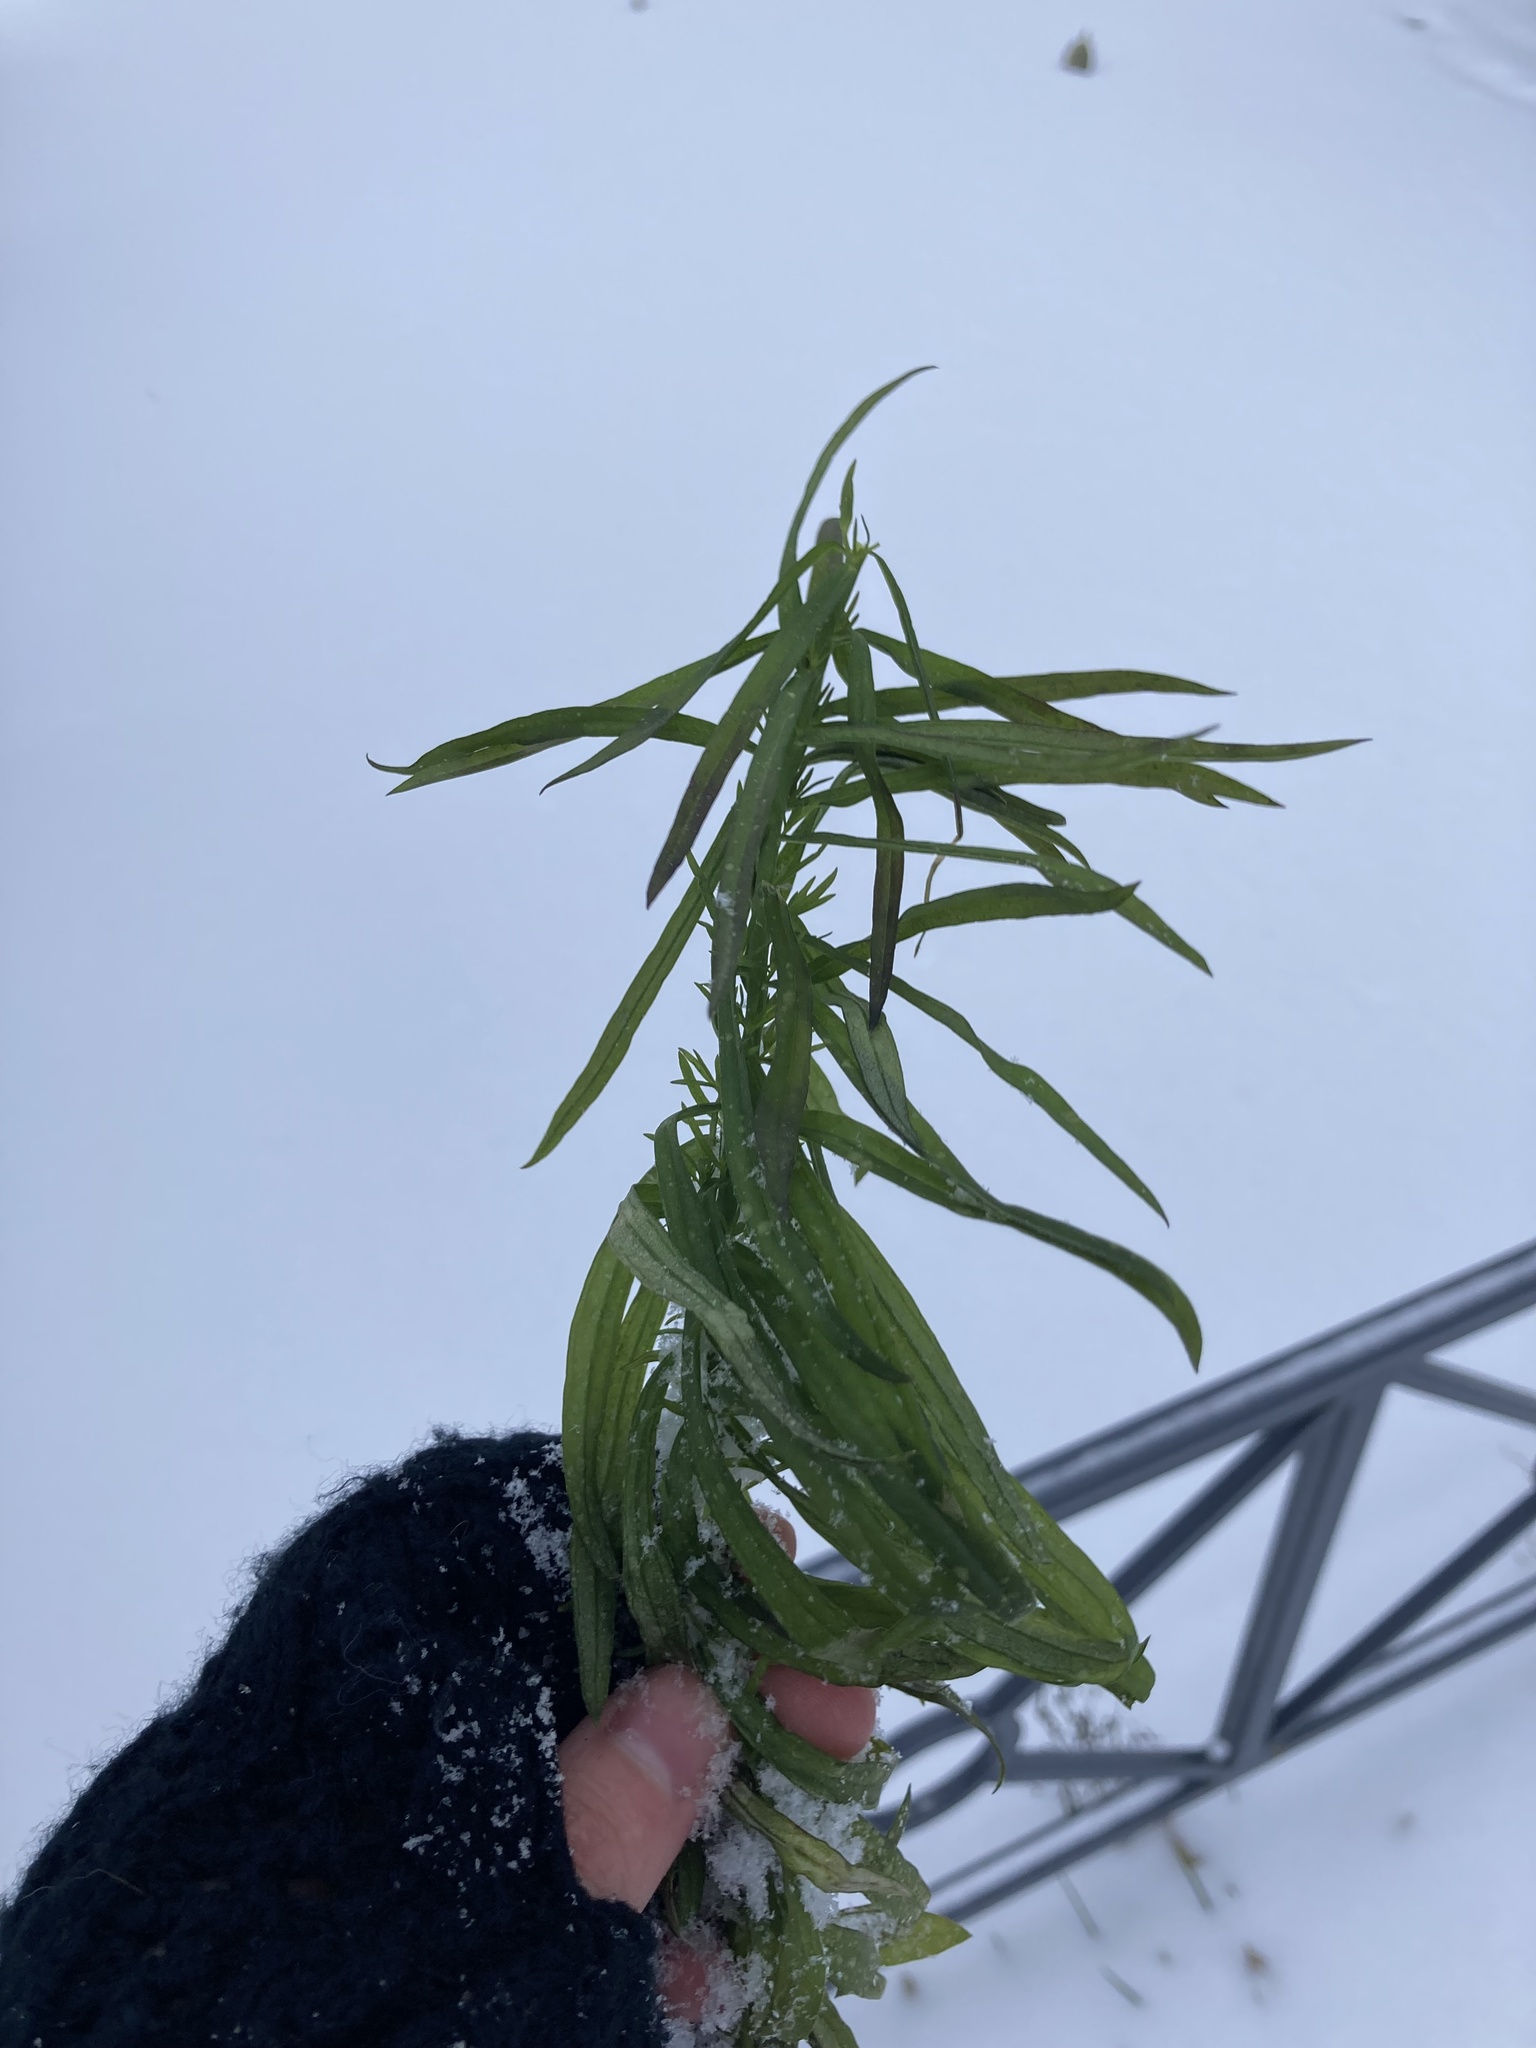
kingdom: Plantae
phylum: Tracheophyta
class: Magnoliopsida
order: Asterales
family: Asteraceae
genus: Erigeron
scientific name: Erigeron canadensis
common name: Canadian fleabane
